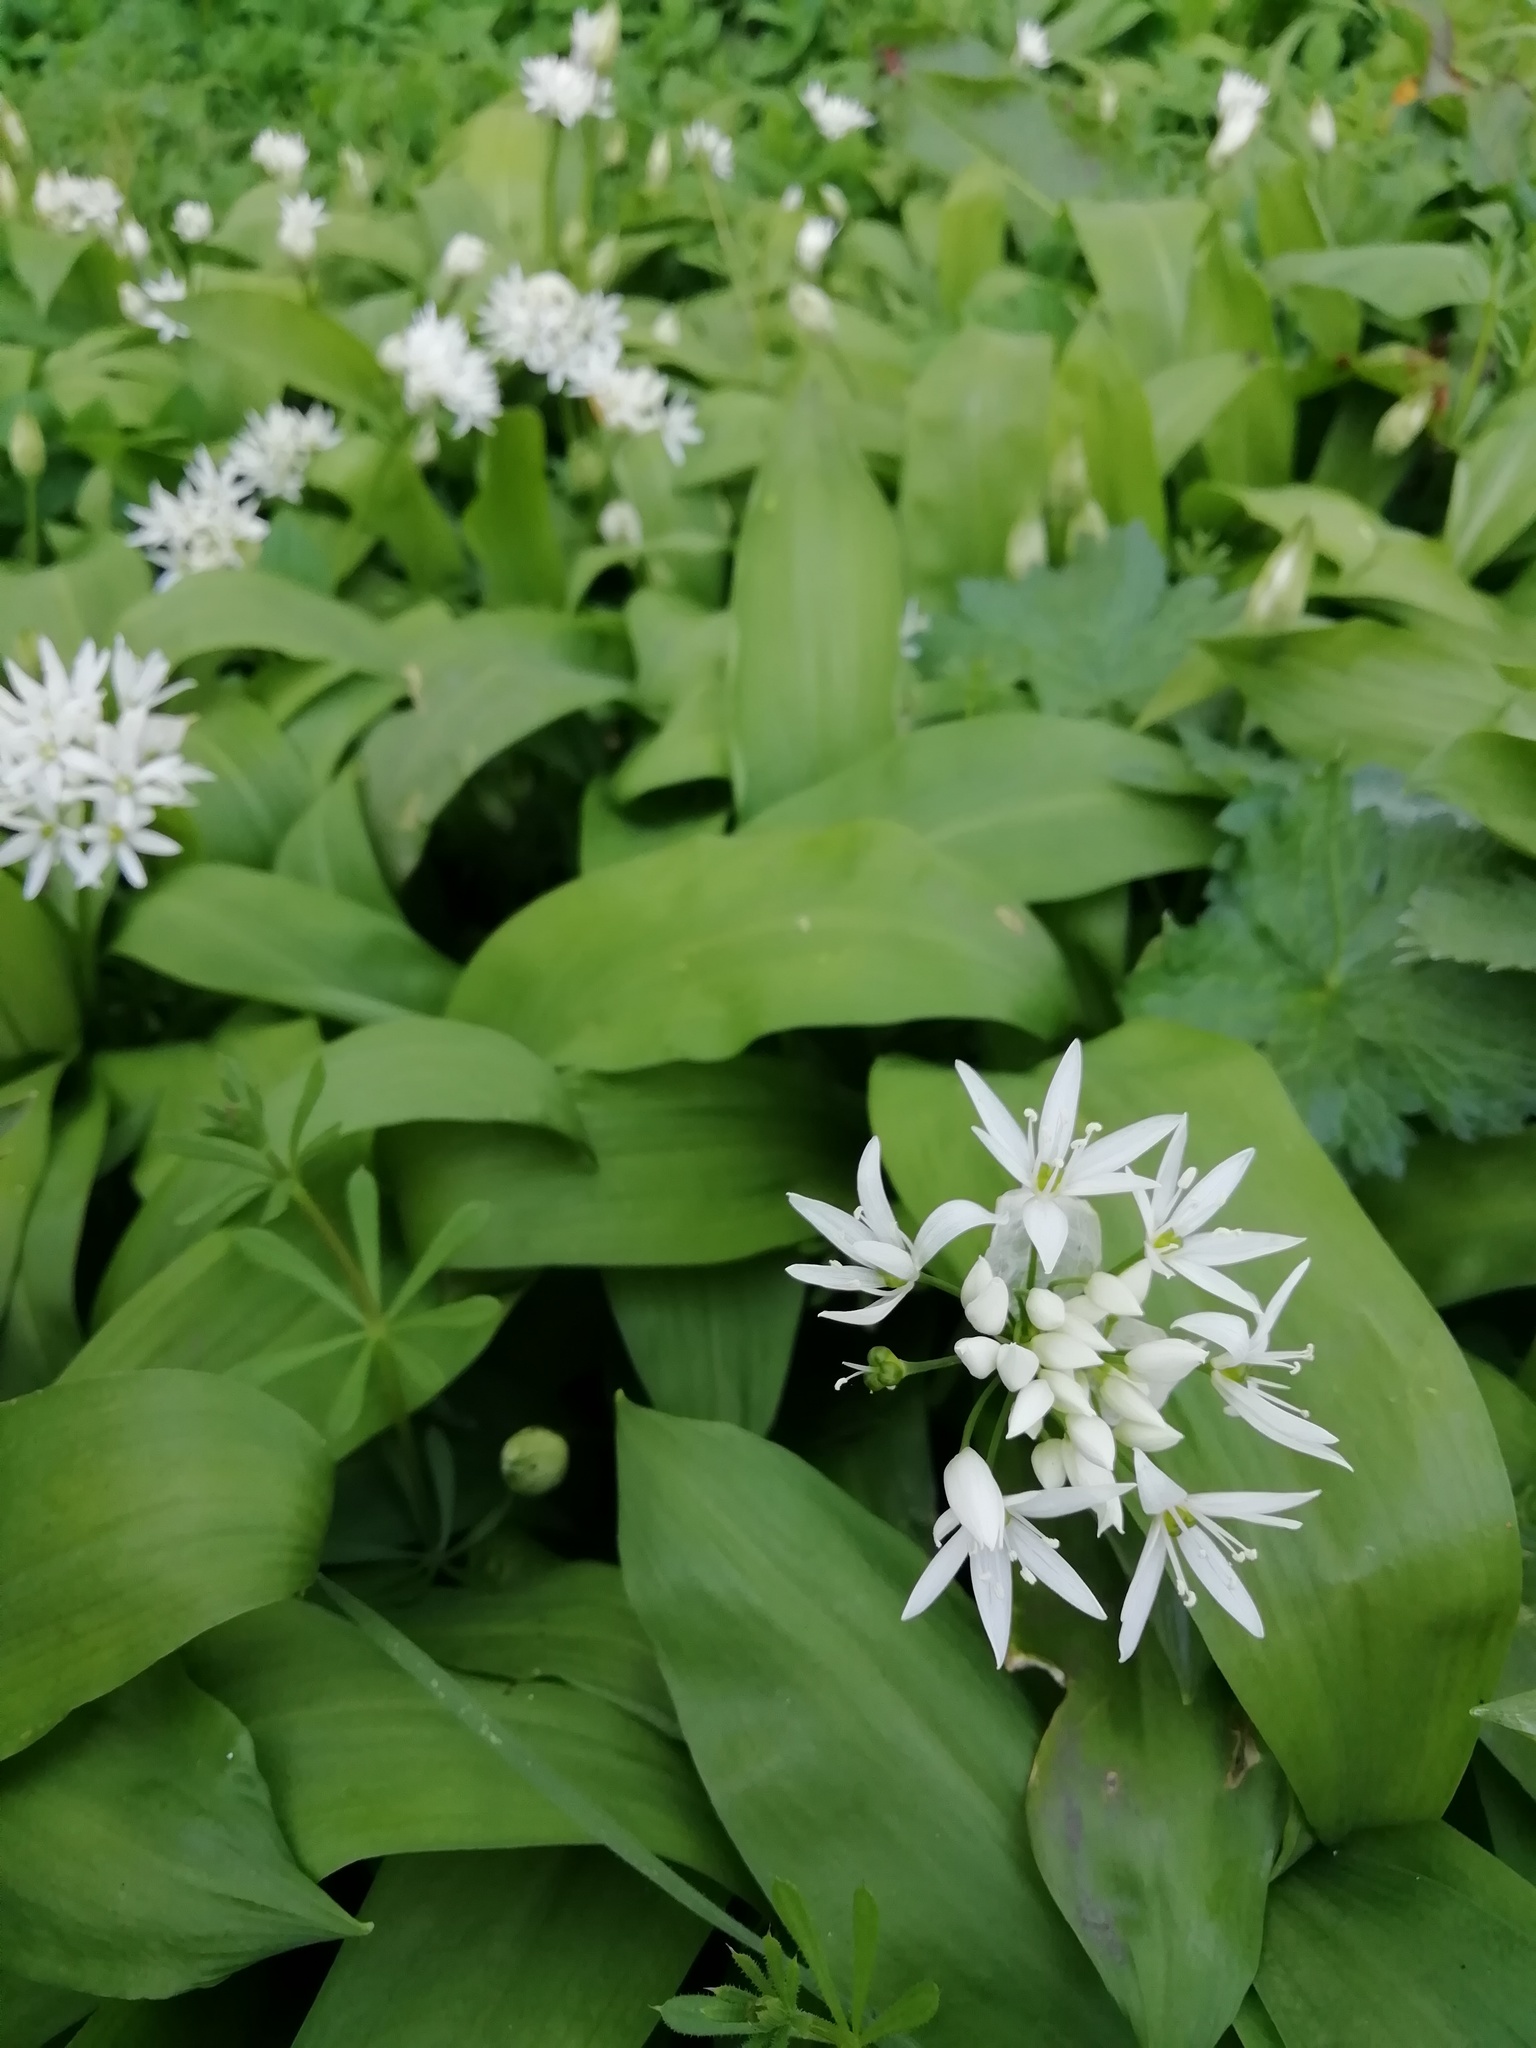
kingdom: Plantae
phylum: Tracheophyta
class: Liliopsida
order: Asparagales
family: Amaryllidaceae
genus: Allium
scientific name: Allium ursinum
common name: Ramsons
